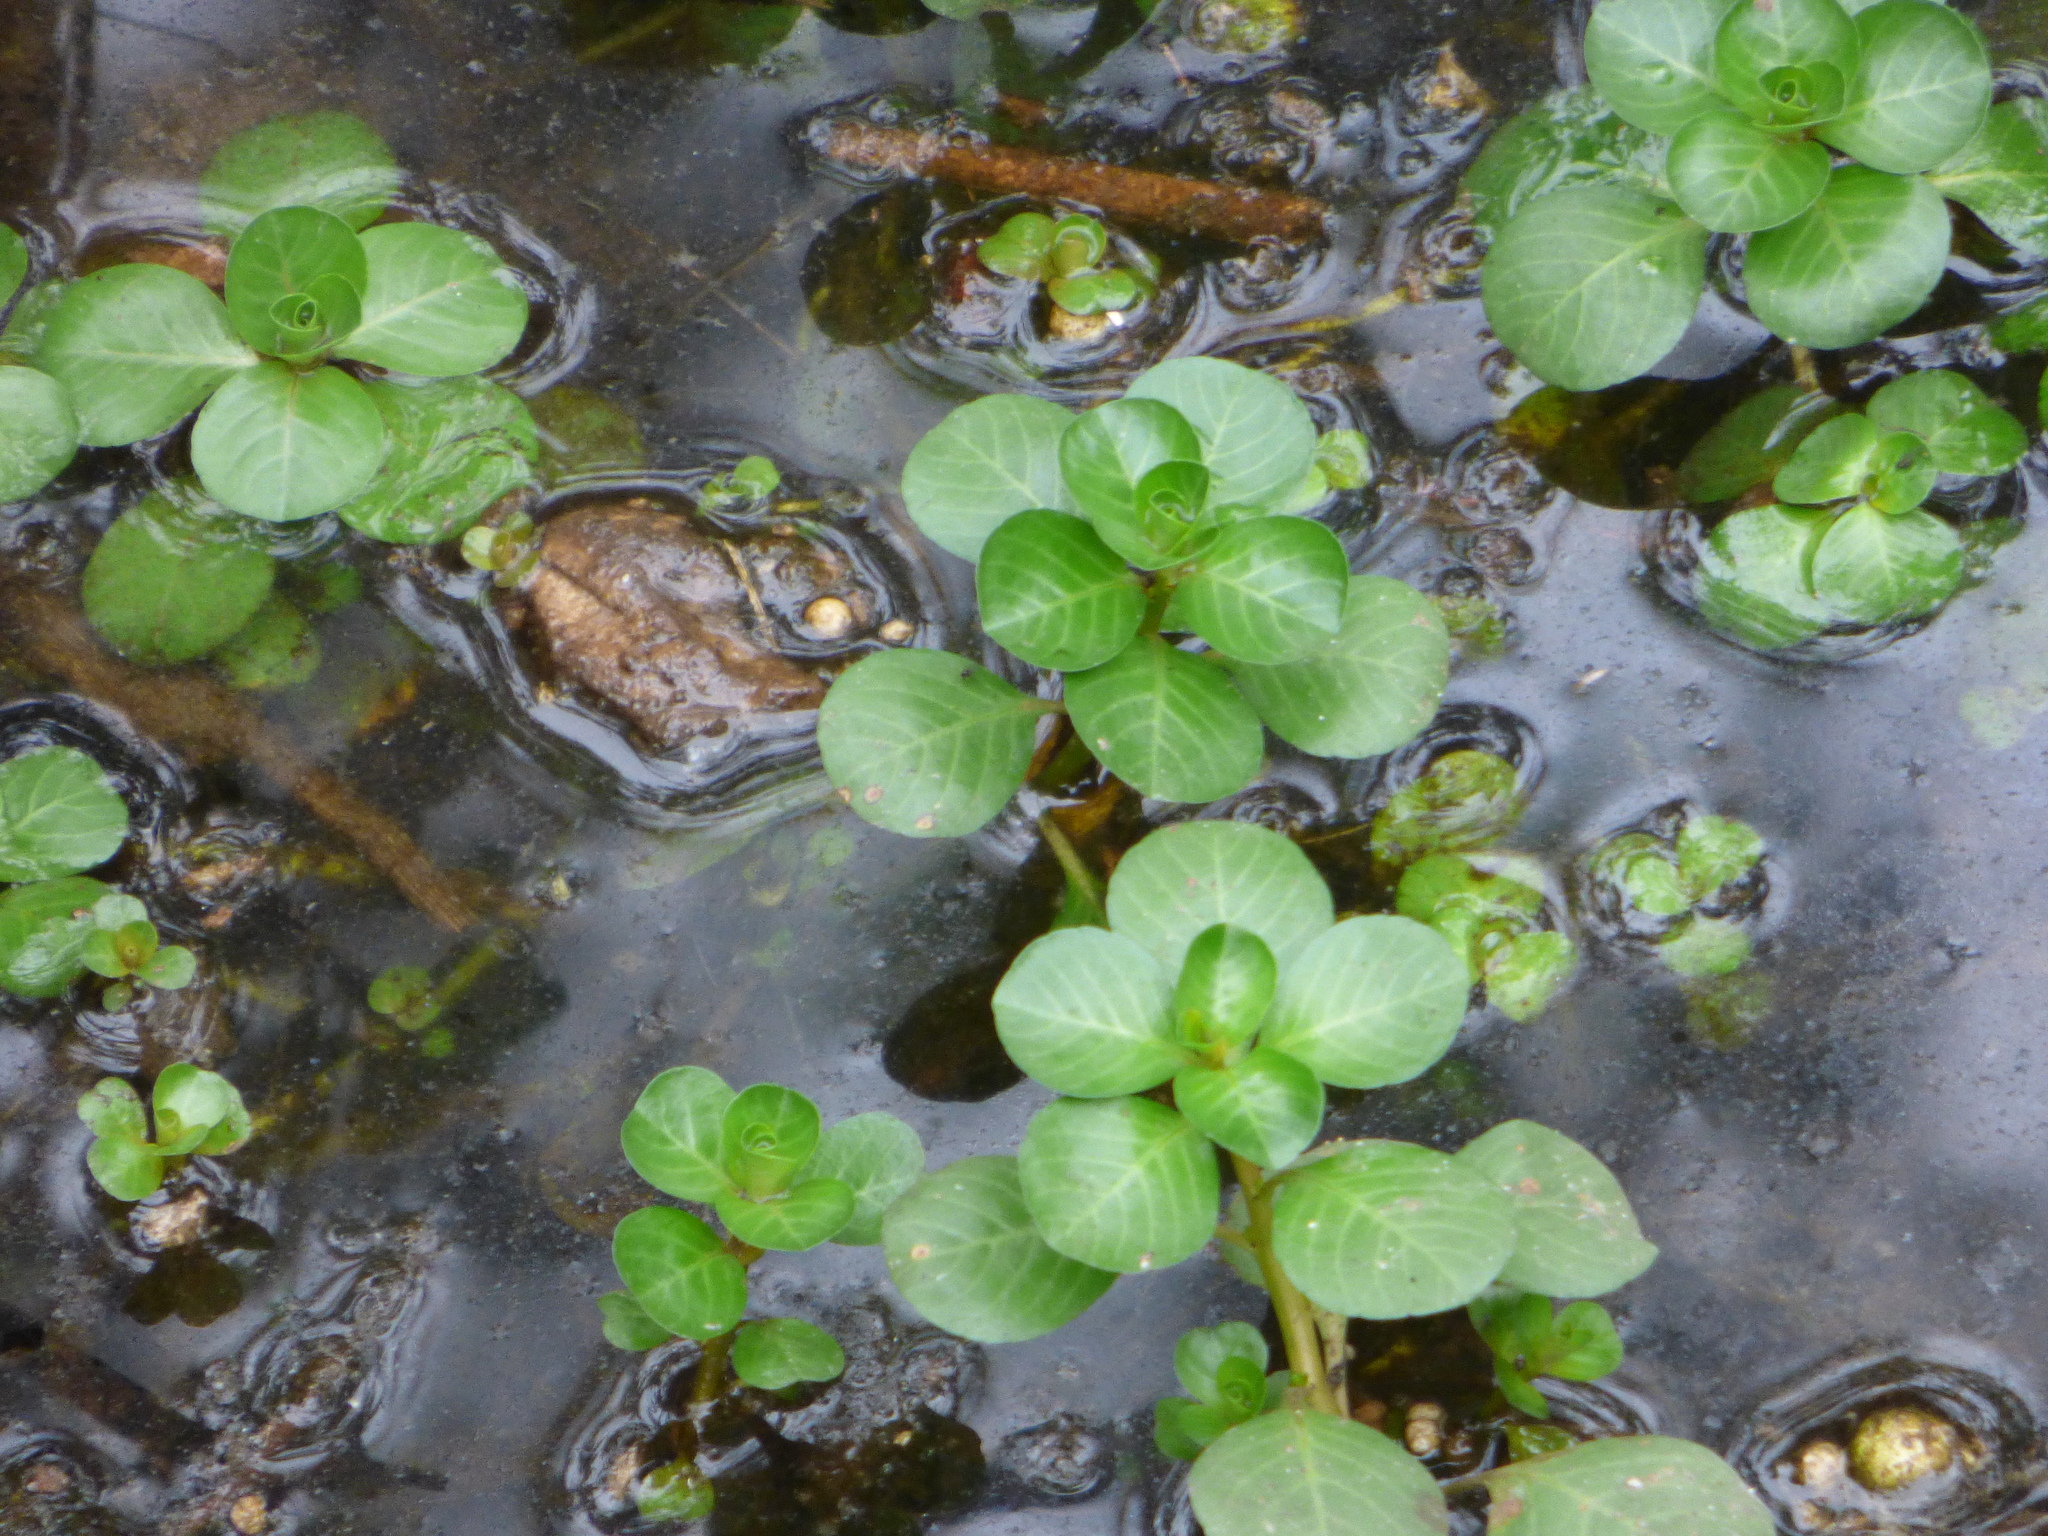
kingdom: Plantae
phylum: Tracheophyta
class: Magnoliopsida
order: Myrtales
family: Onagraceae
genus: Ludwigia
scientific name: Ludwigia peploides
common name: Floating primrose-willow
